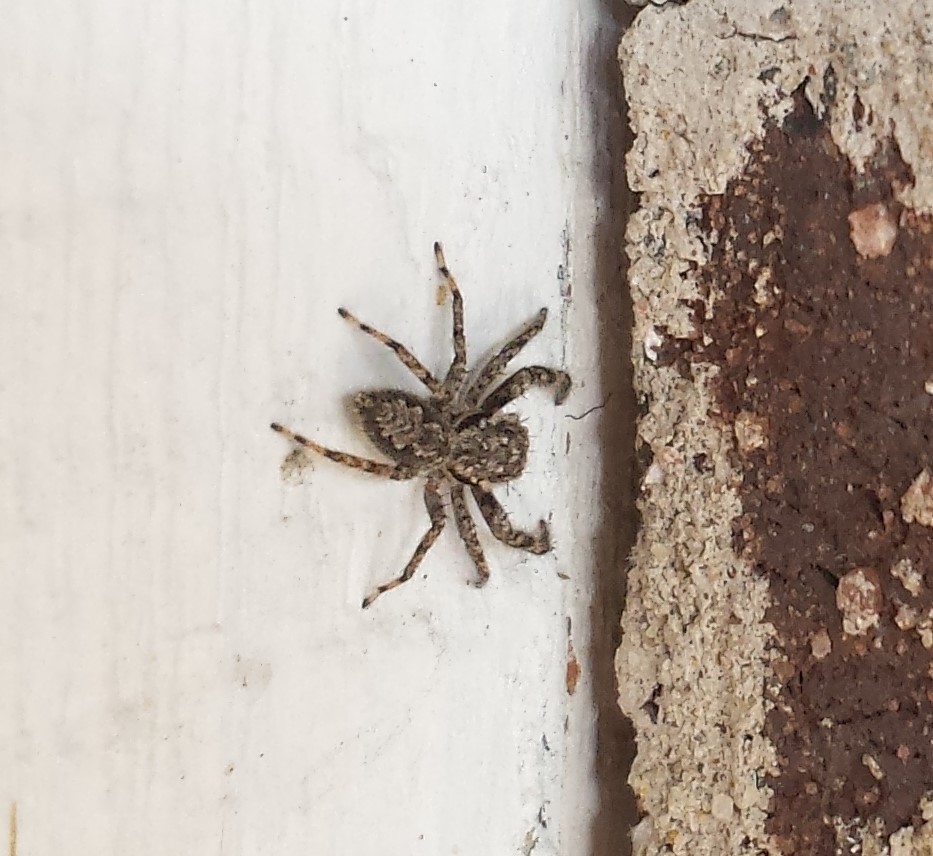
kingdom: Animalia
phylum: Arthropoda
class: Arachnida
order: Araneae
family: Salticidae
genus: Platycryptus
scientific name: Platycryptus undatus
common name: Tan jumping spider
